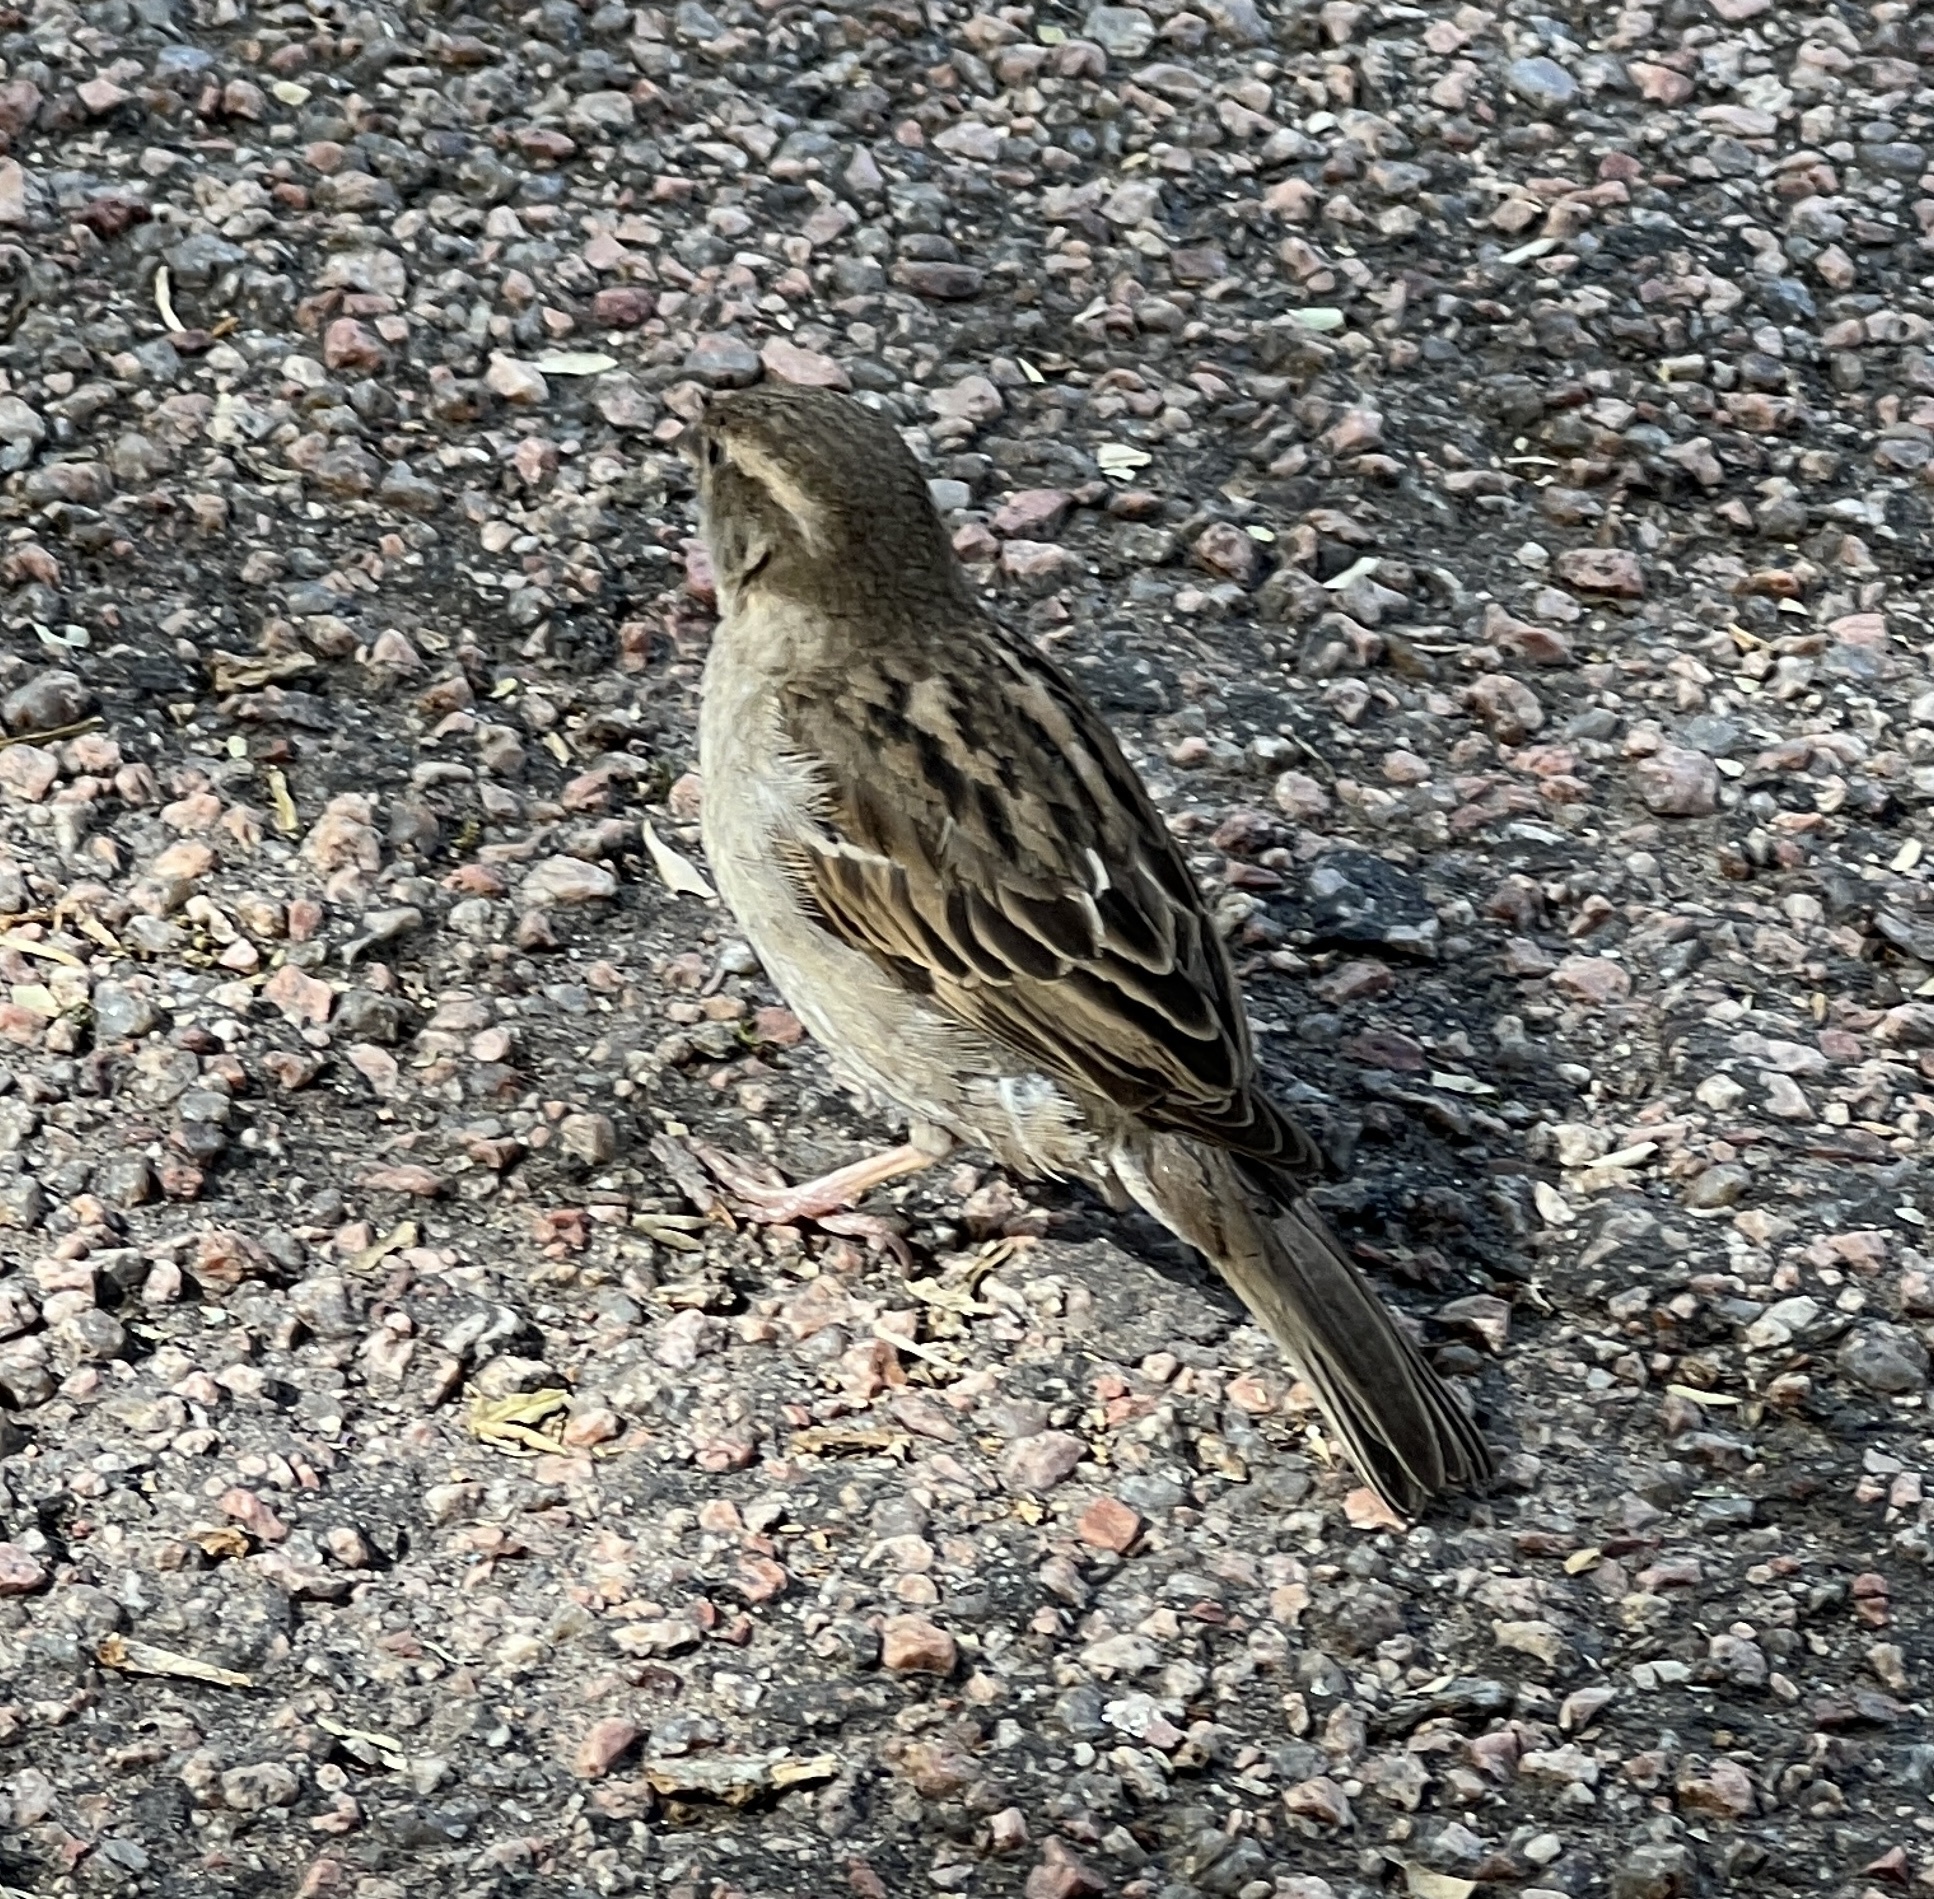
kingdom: Animalia
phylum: Chordata
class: Aves
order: Passeriformes
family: Passeridae
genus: Passer
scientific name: Passer domesticus
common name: House sparrow
